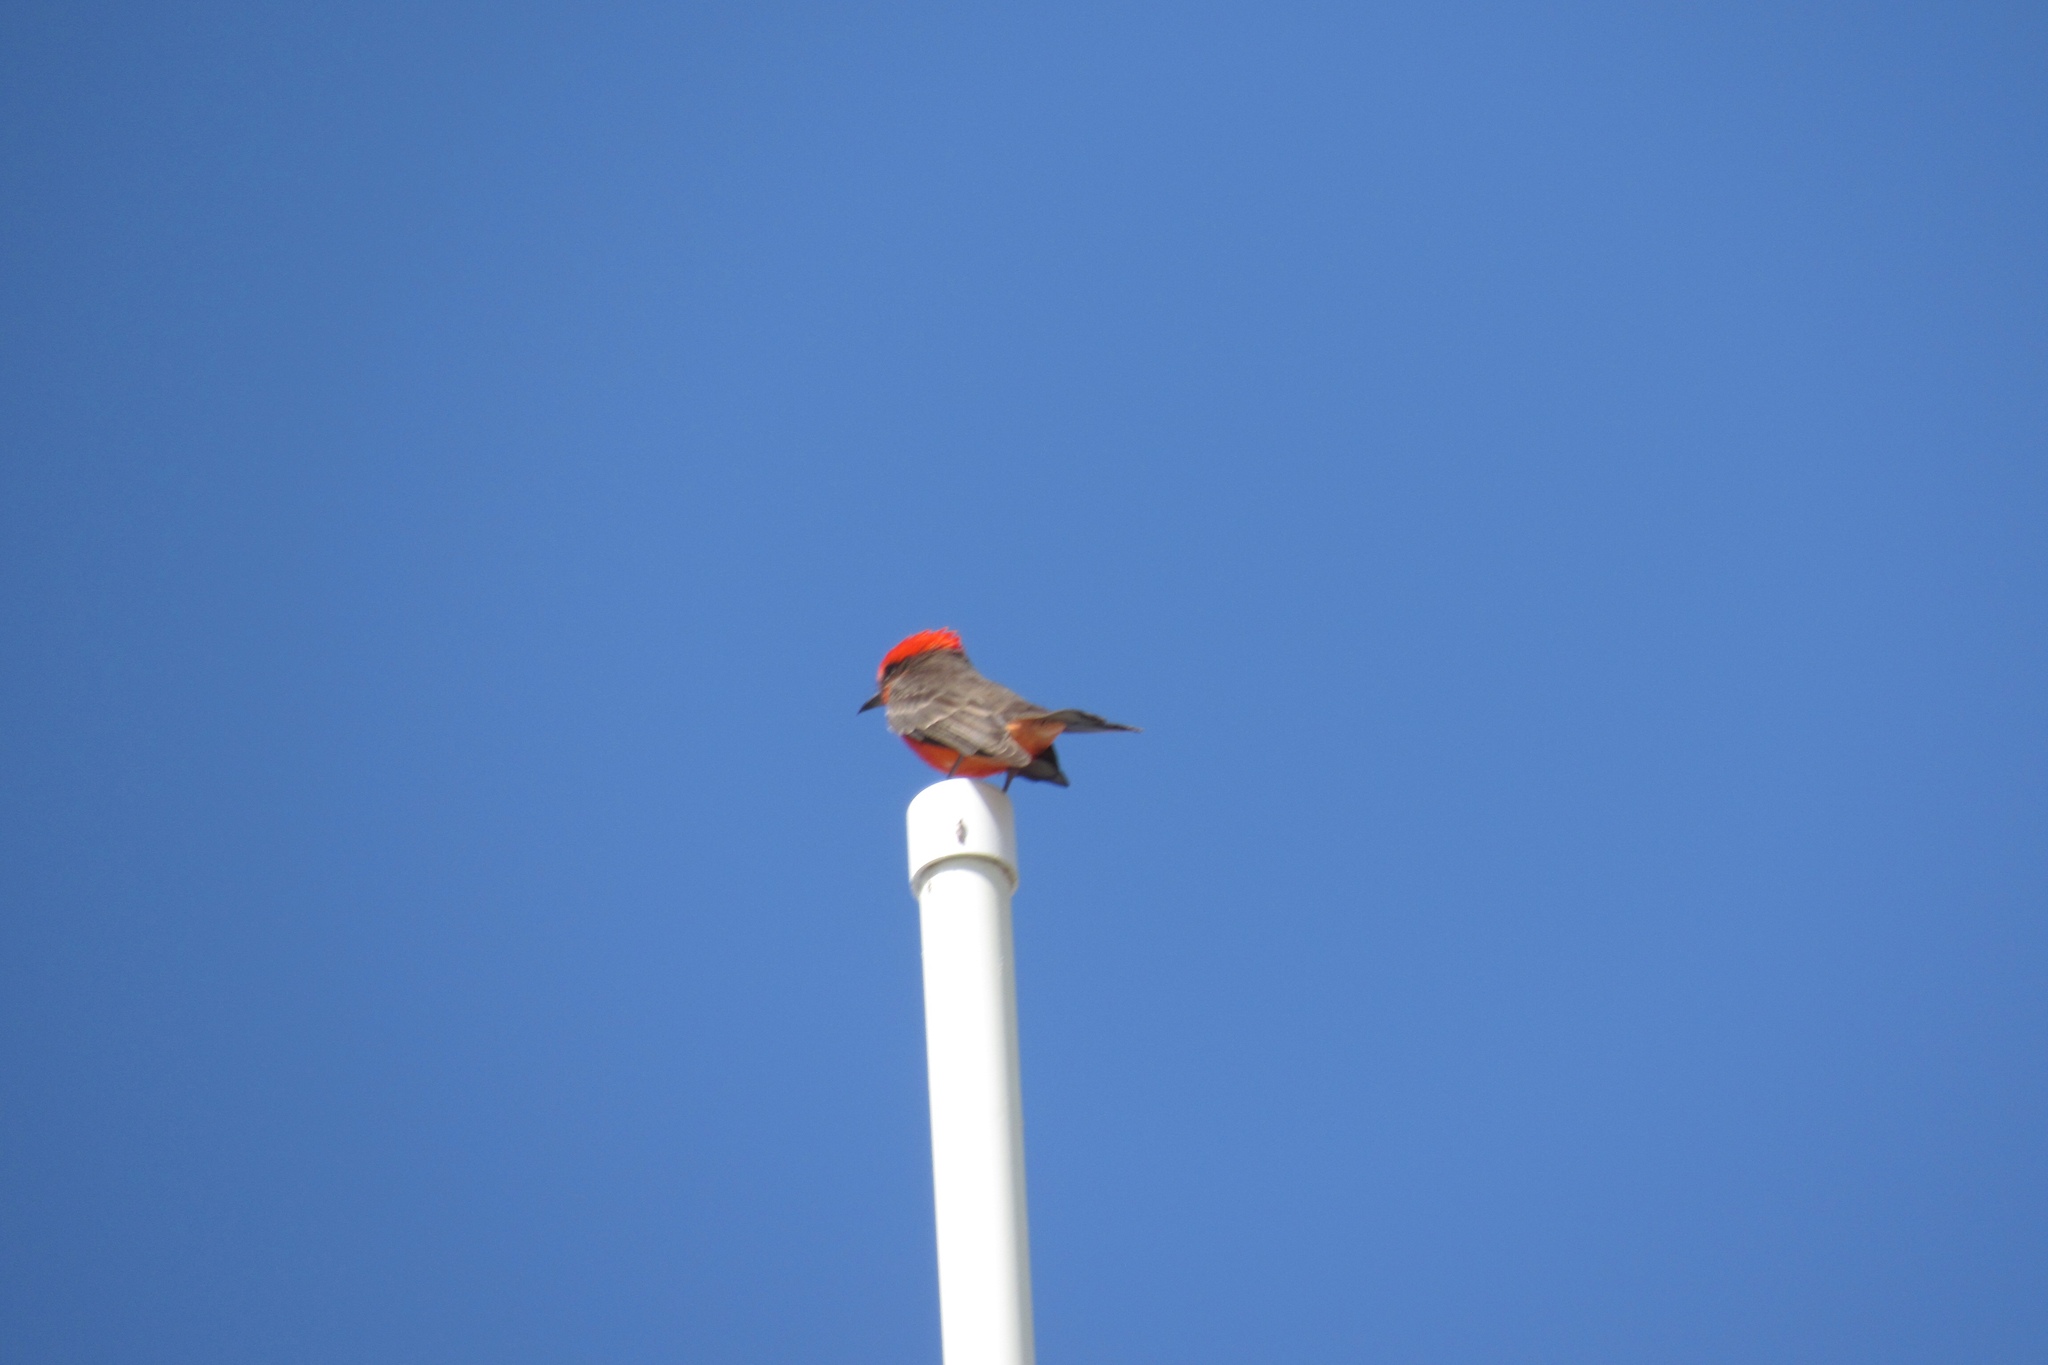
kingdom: Animalia
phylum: Chordata
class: Aves
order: Passeriformes
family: Tyrannidae
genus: Pyrocephalus
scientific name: Pyrocephalus rubinus
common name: Vermilion flycatcher
